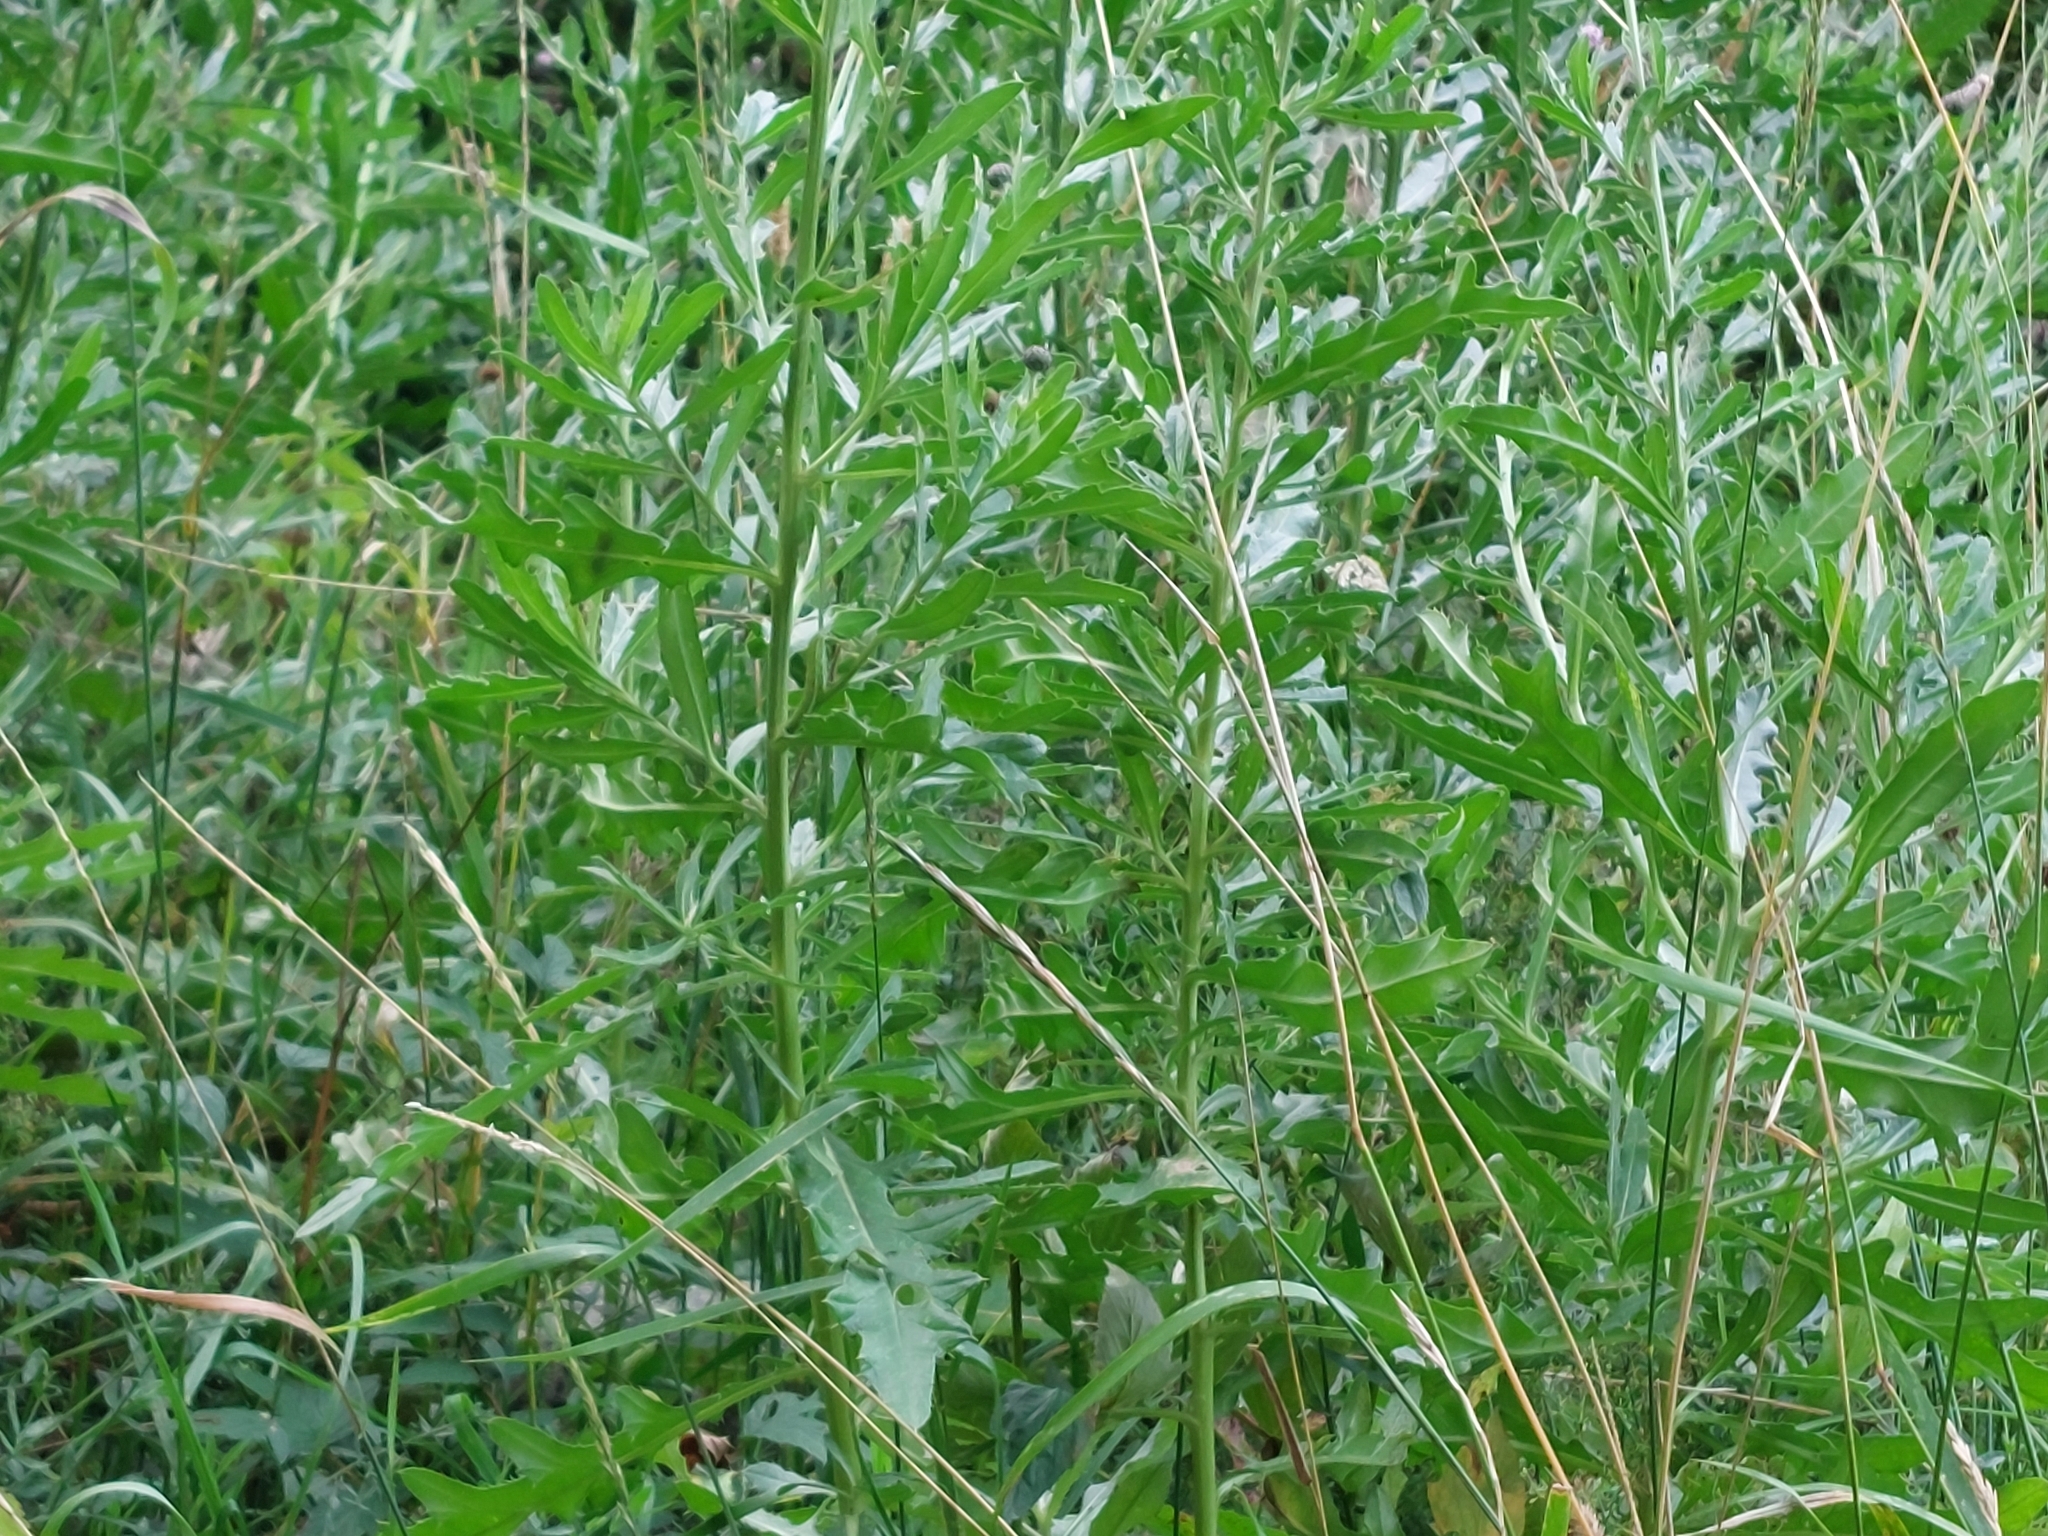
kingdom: Plantae
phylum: Tracheophyta
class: Magnoliopsida
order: Asterales
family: Asteraceae
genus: Cirsium
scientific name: Cirsium arvense
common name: Creeping thistle
